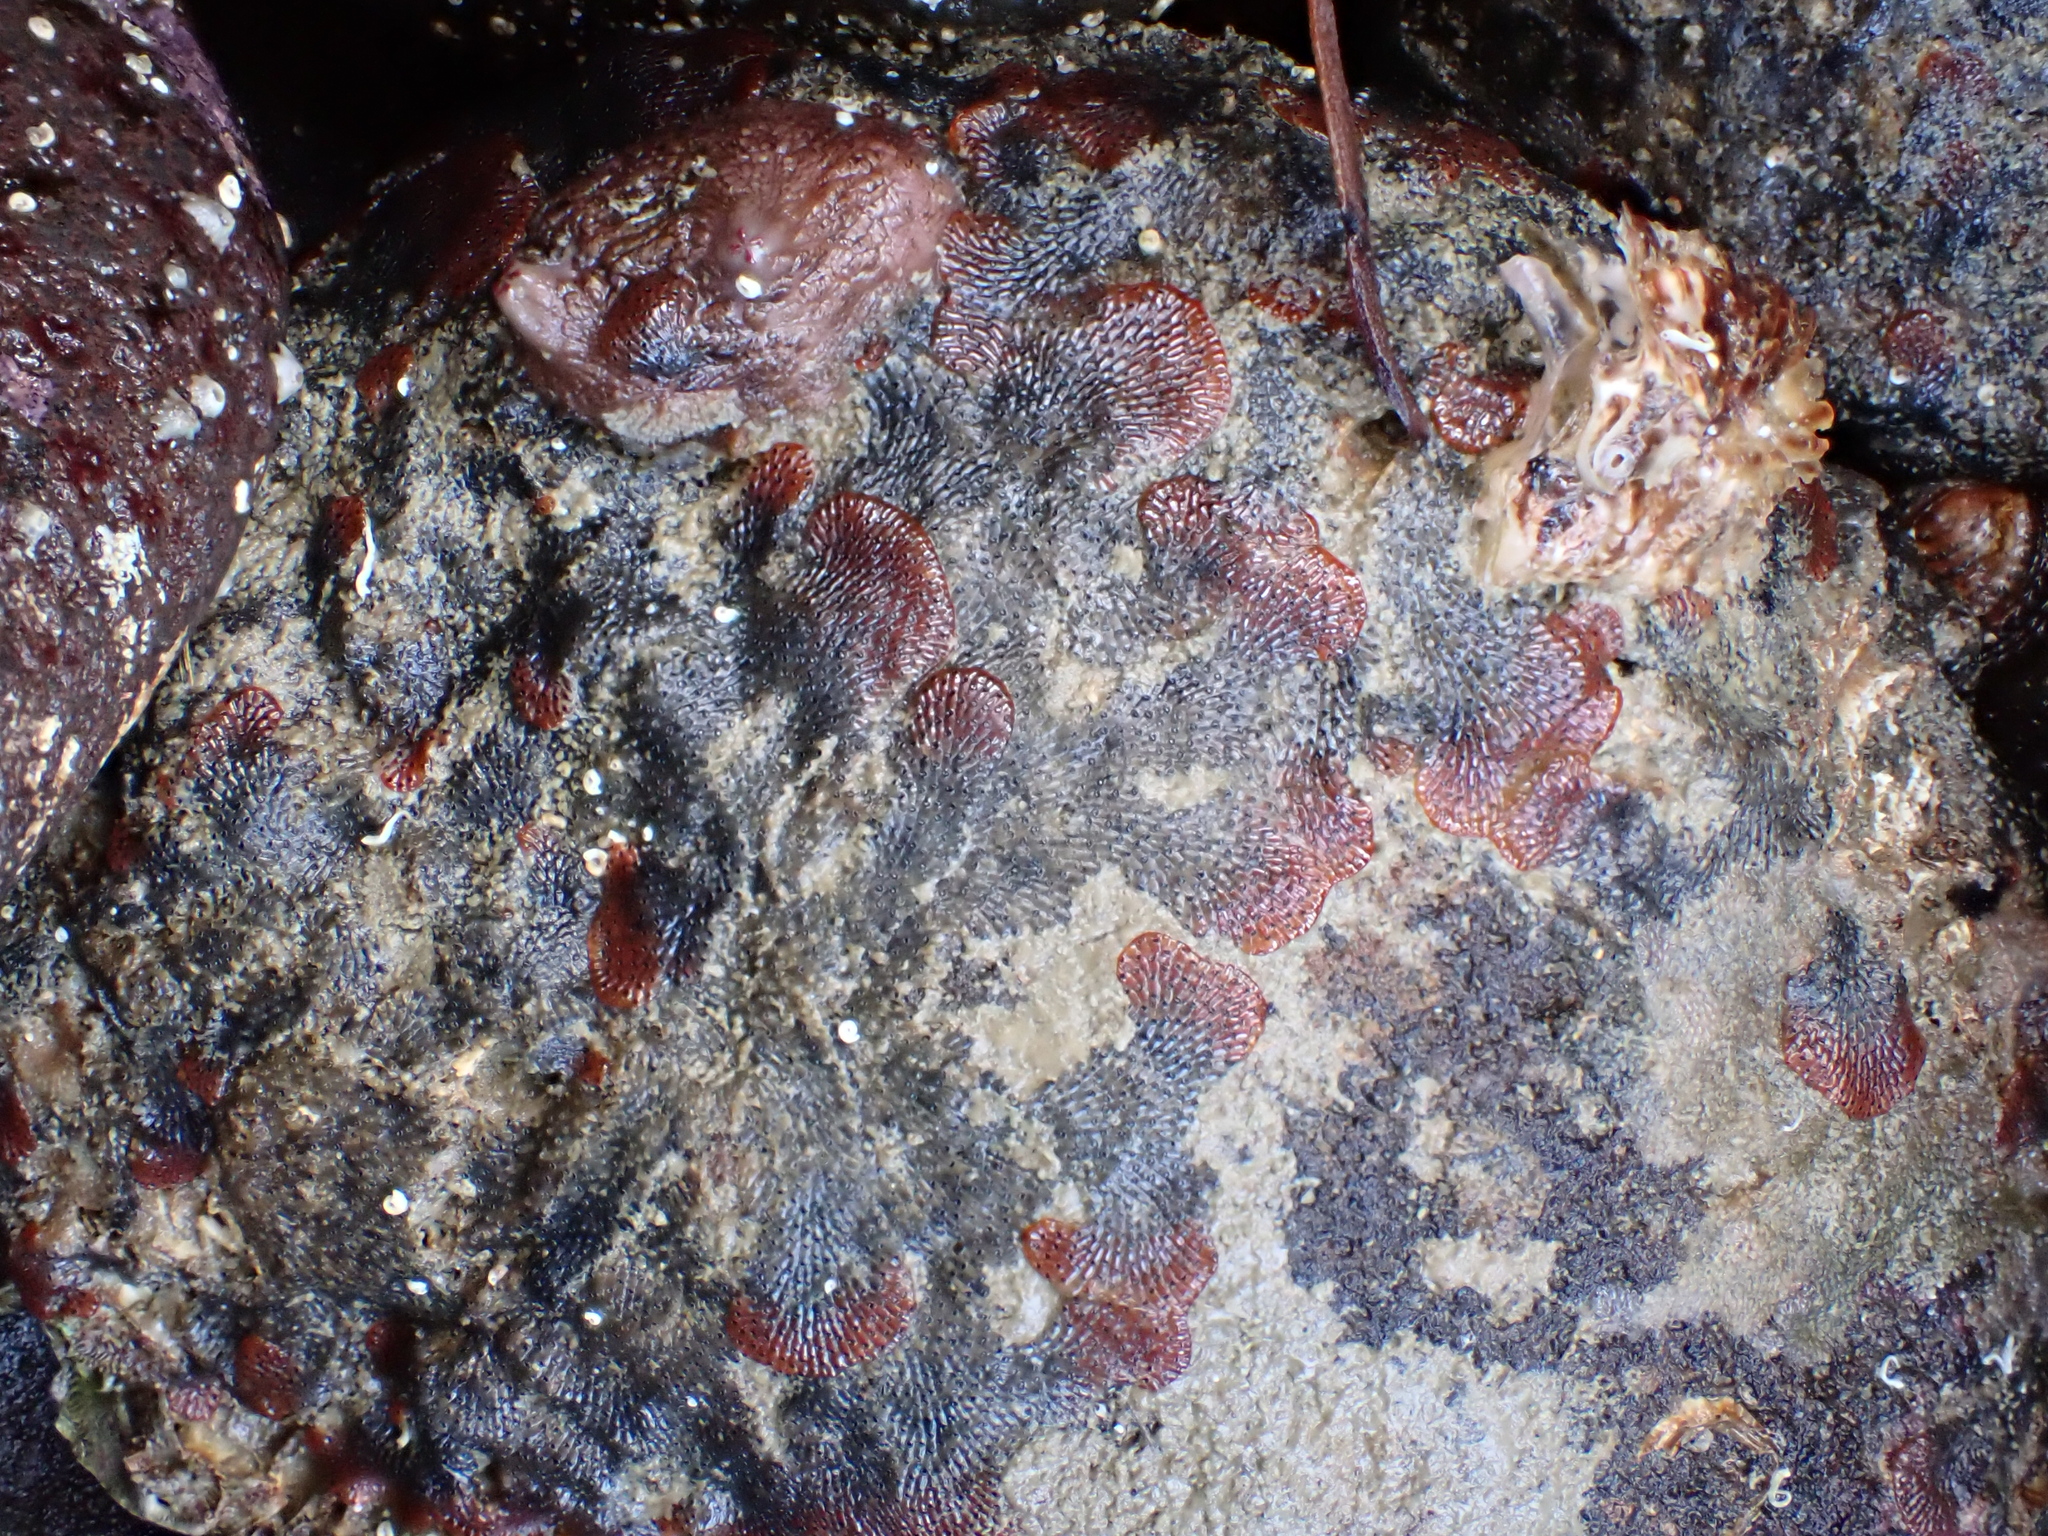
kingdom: Animalia
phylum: Bryozoa
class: Gymnolaemata
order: Cheilostomatida
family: Watersiporidae
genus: Watersipora
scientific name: Watersipora subatra
